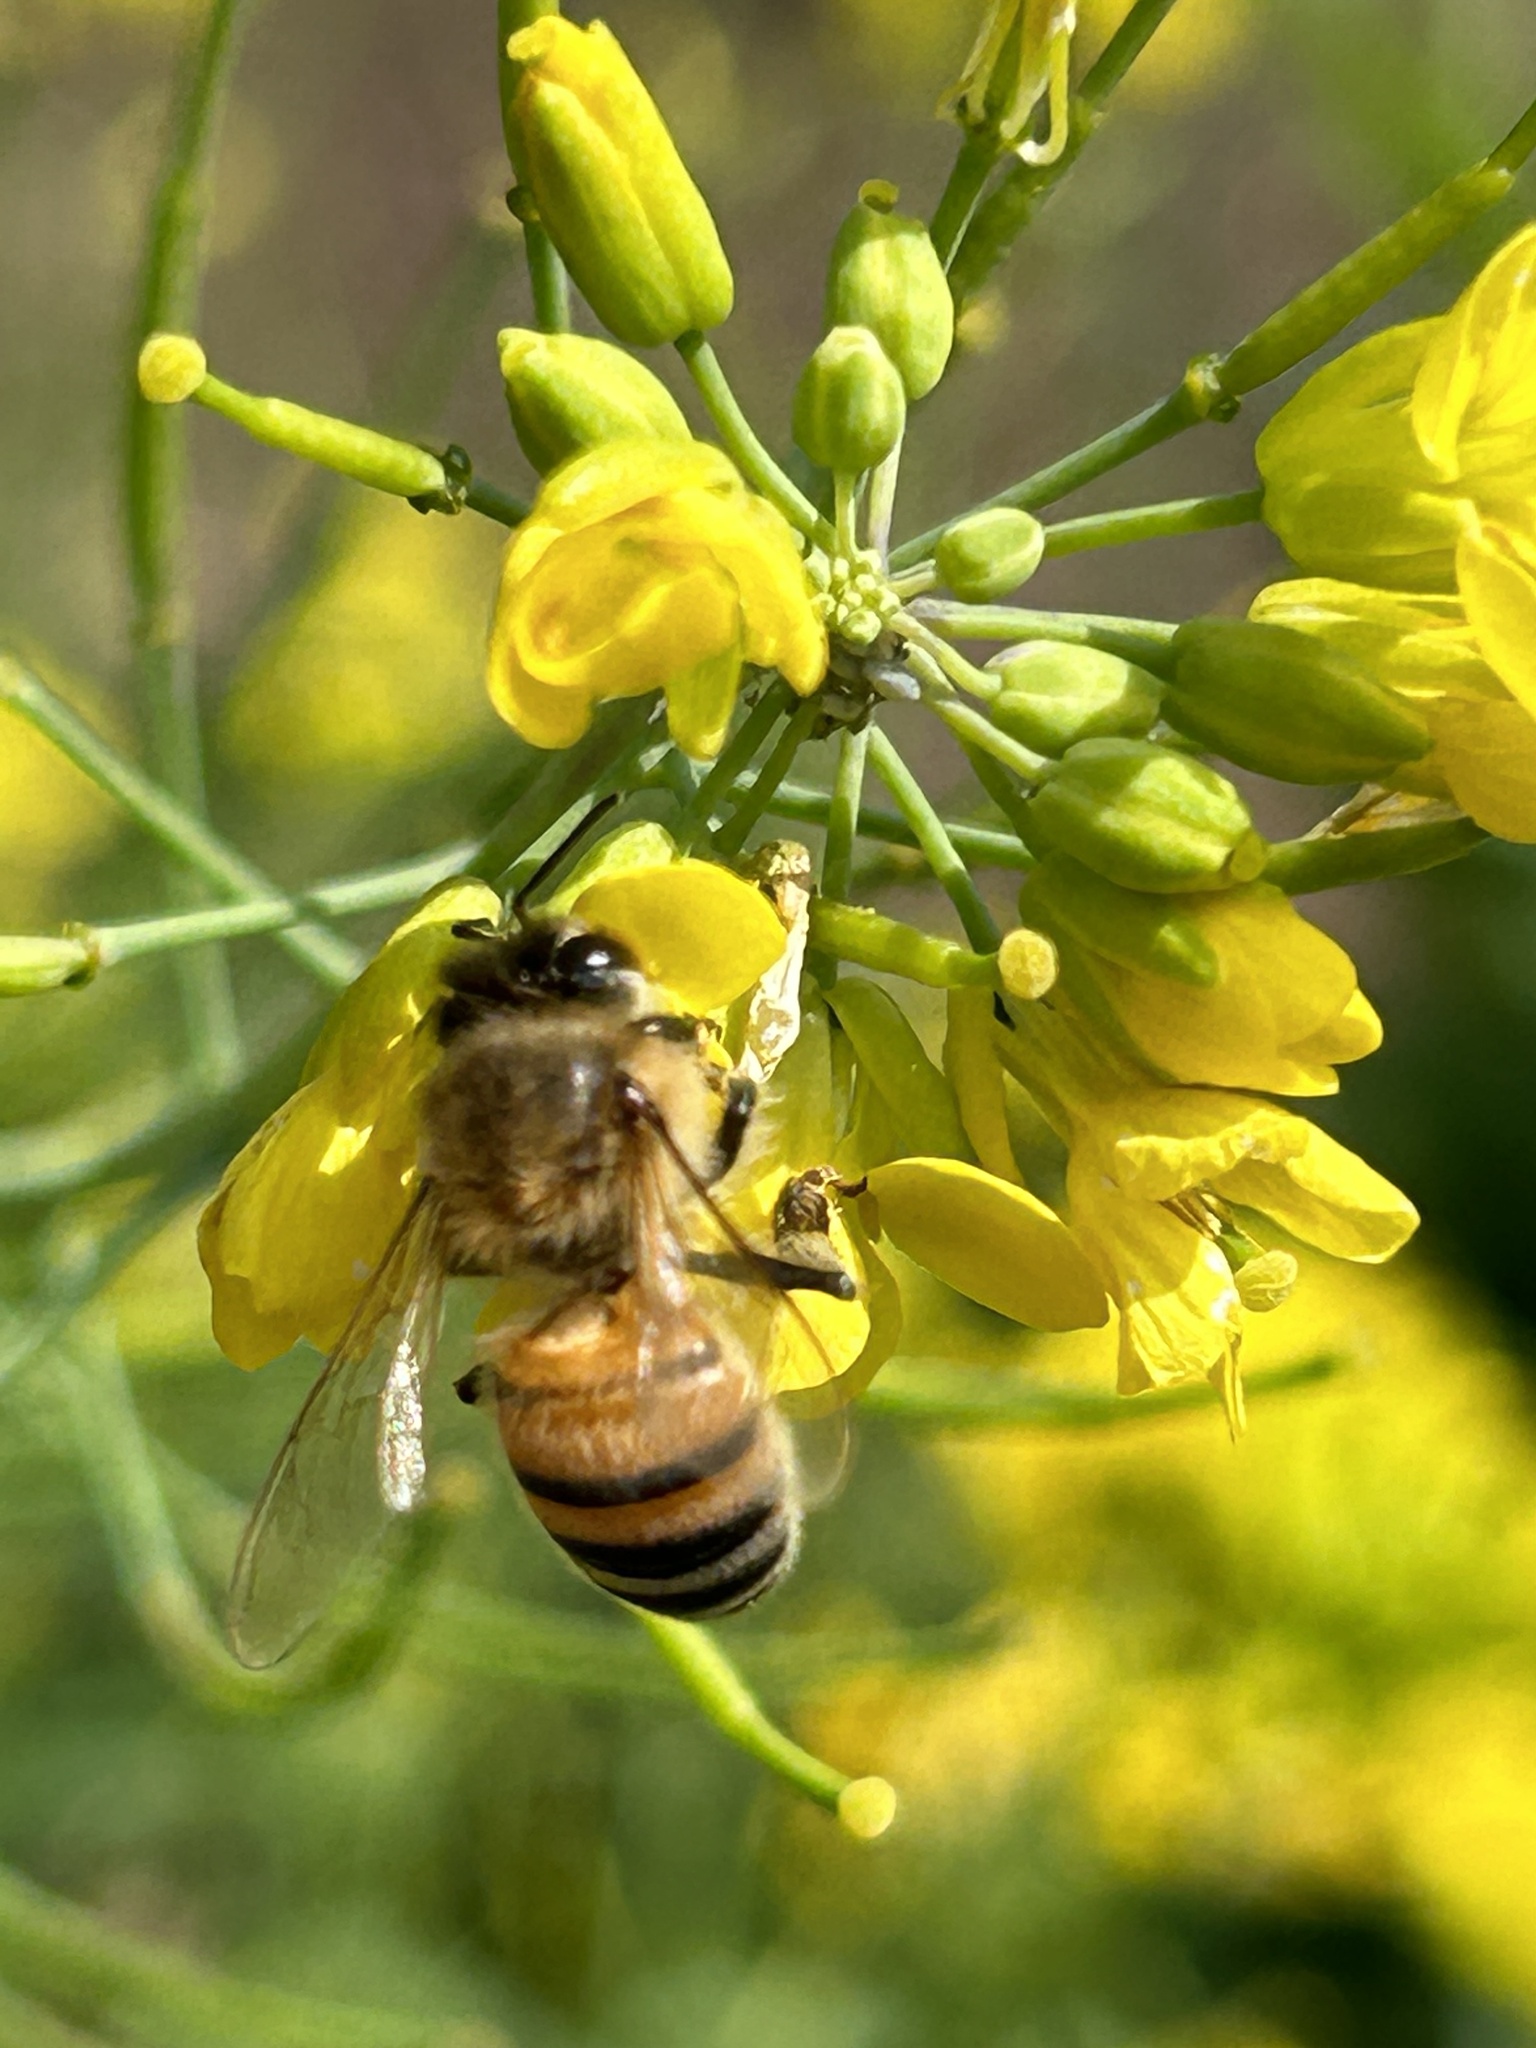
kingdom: Animalia
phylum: Arthropoda
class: Insecta
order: Hymenoptera
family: Apidae
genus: Apis
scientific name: Apis mellifera
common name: Honey bee
